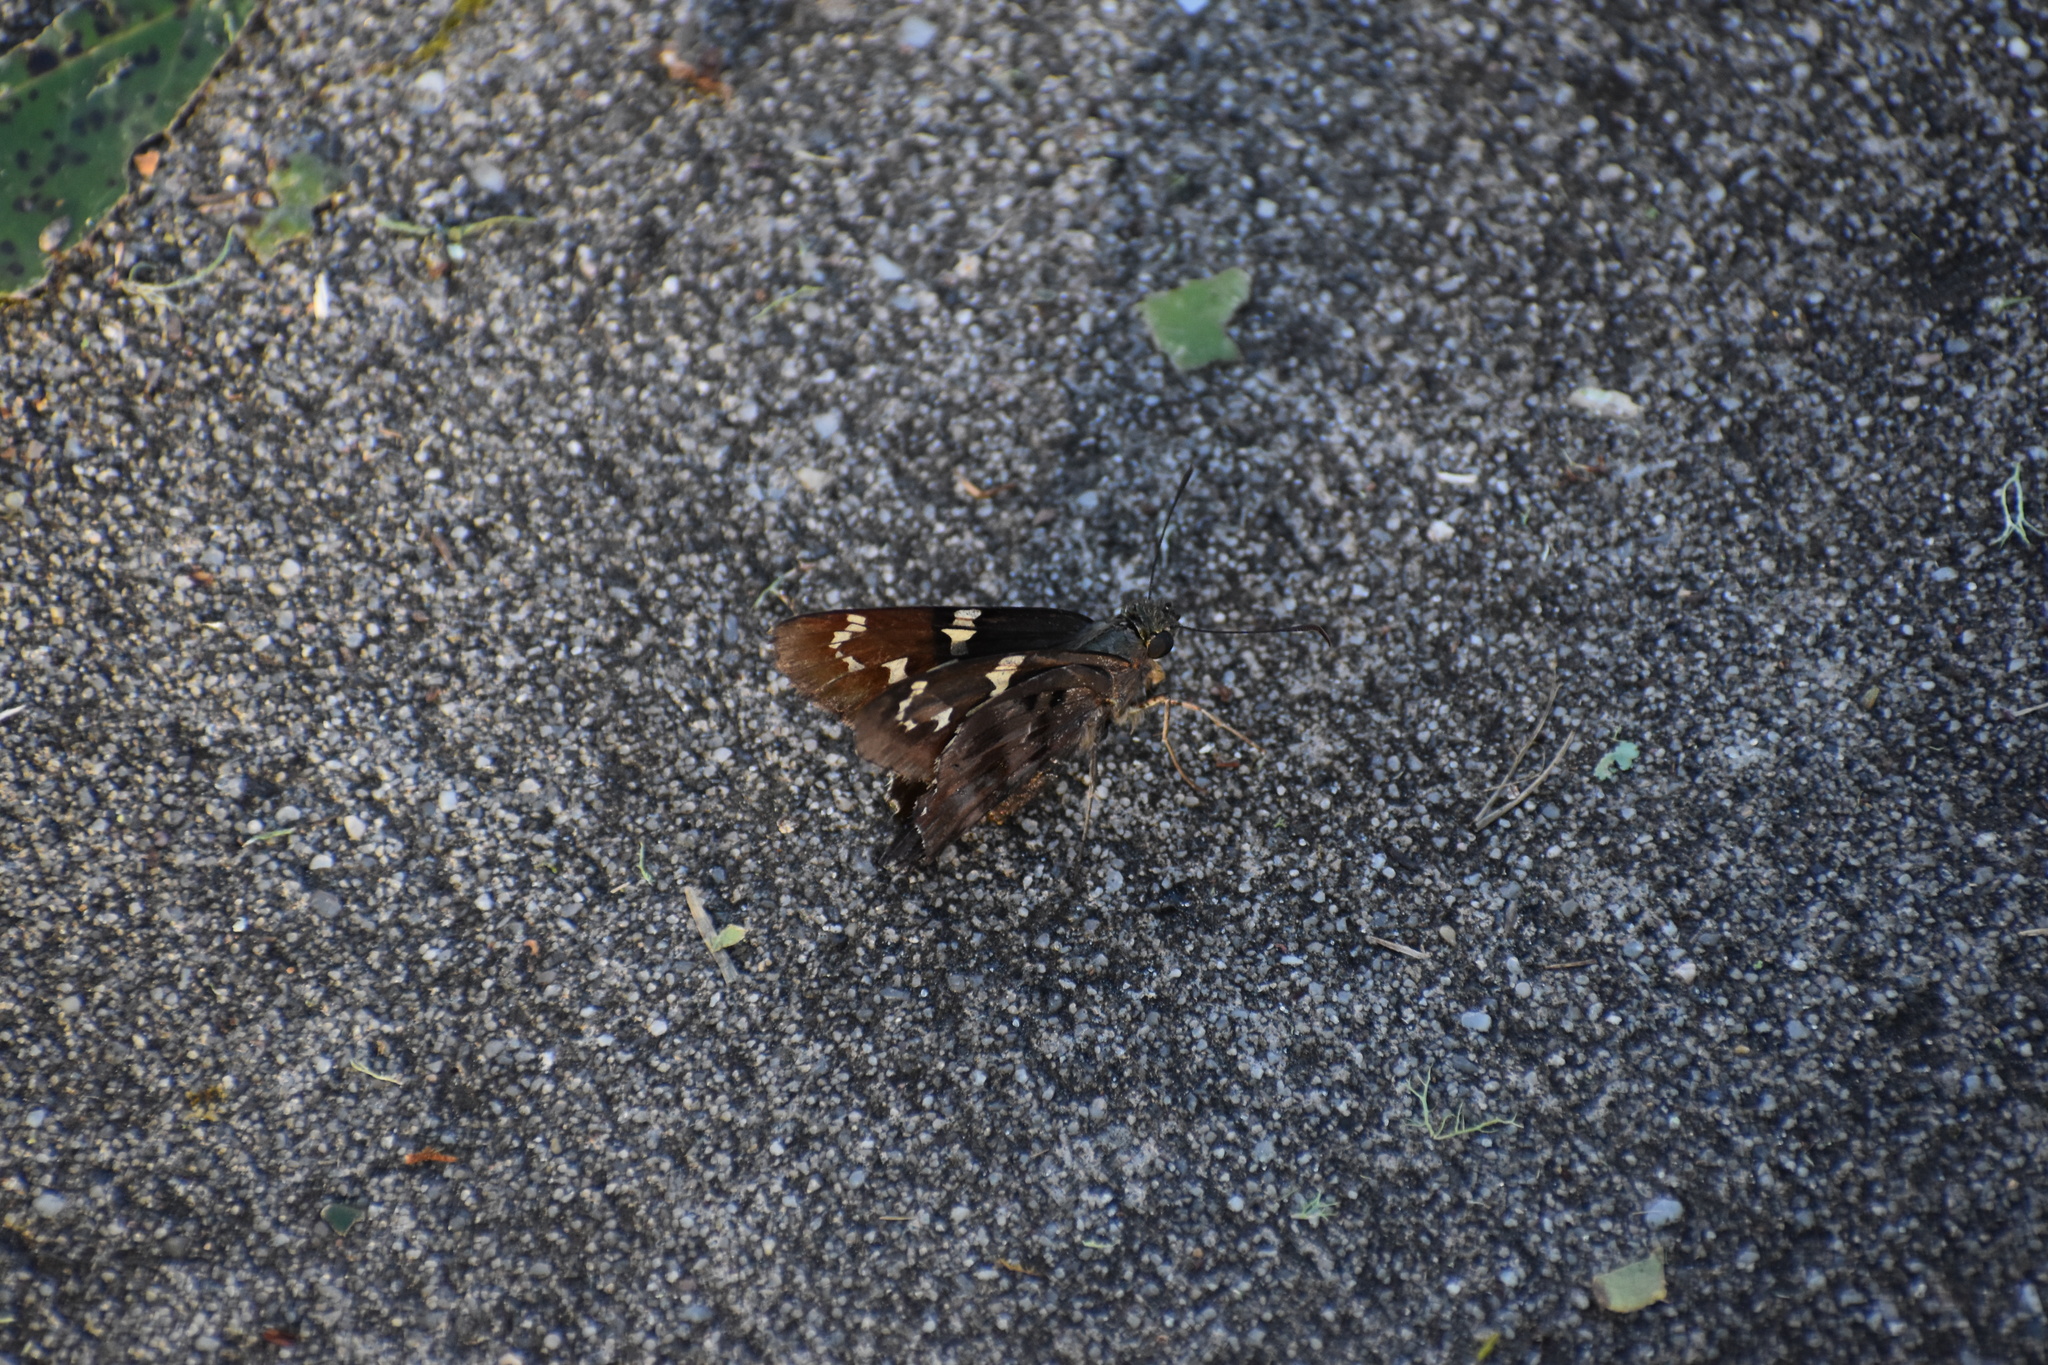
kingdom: Animalia
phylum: Arthropoda
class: Insecta
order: Lepidoptera
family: Hesperiidae
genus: Urbanus
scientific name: Urbanus proteus
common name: Long-tailed skipper
